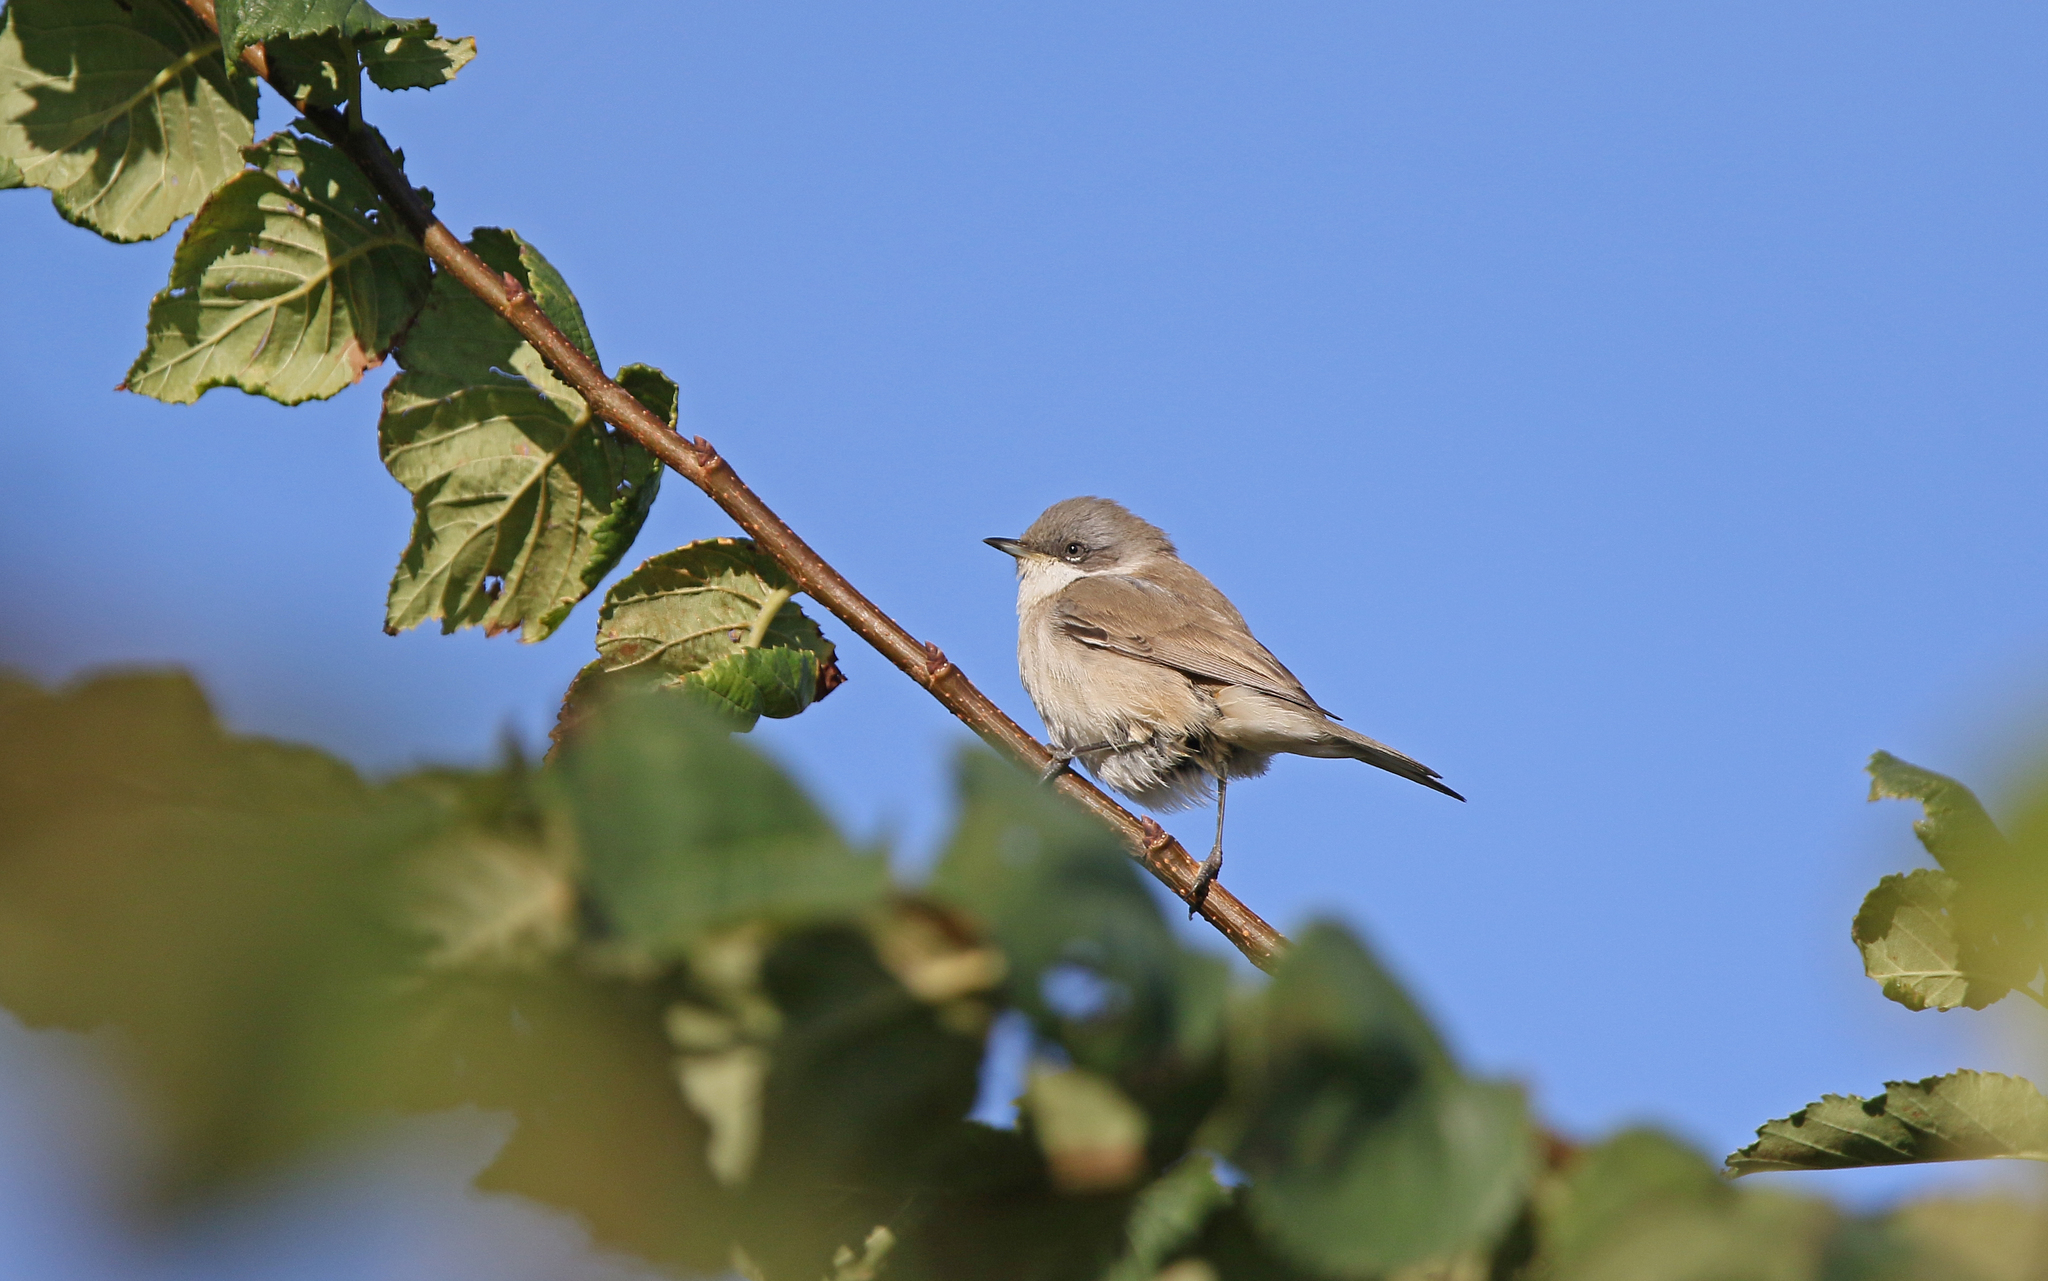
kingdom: Animalia
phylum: Chordata
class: Aves
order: Passeriformes
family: Sylviidae
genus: Sylvia
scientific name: Sylvia curruca
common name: Lesser whitethroat
